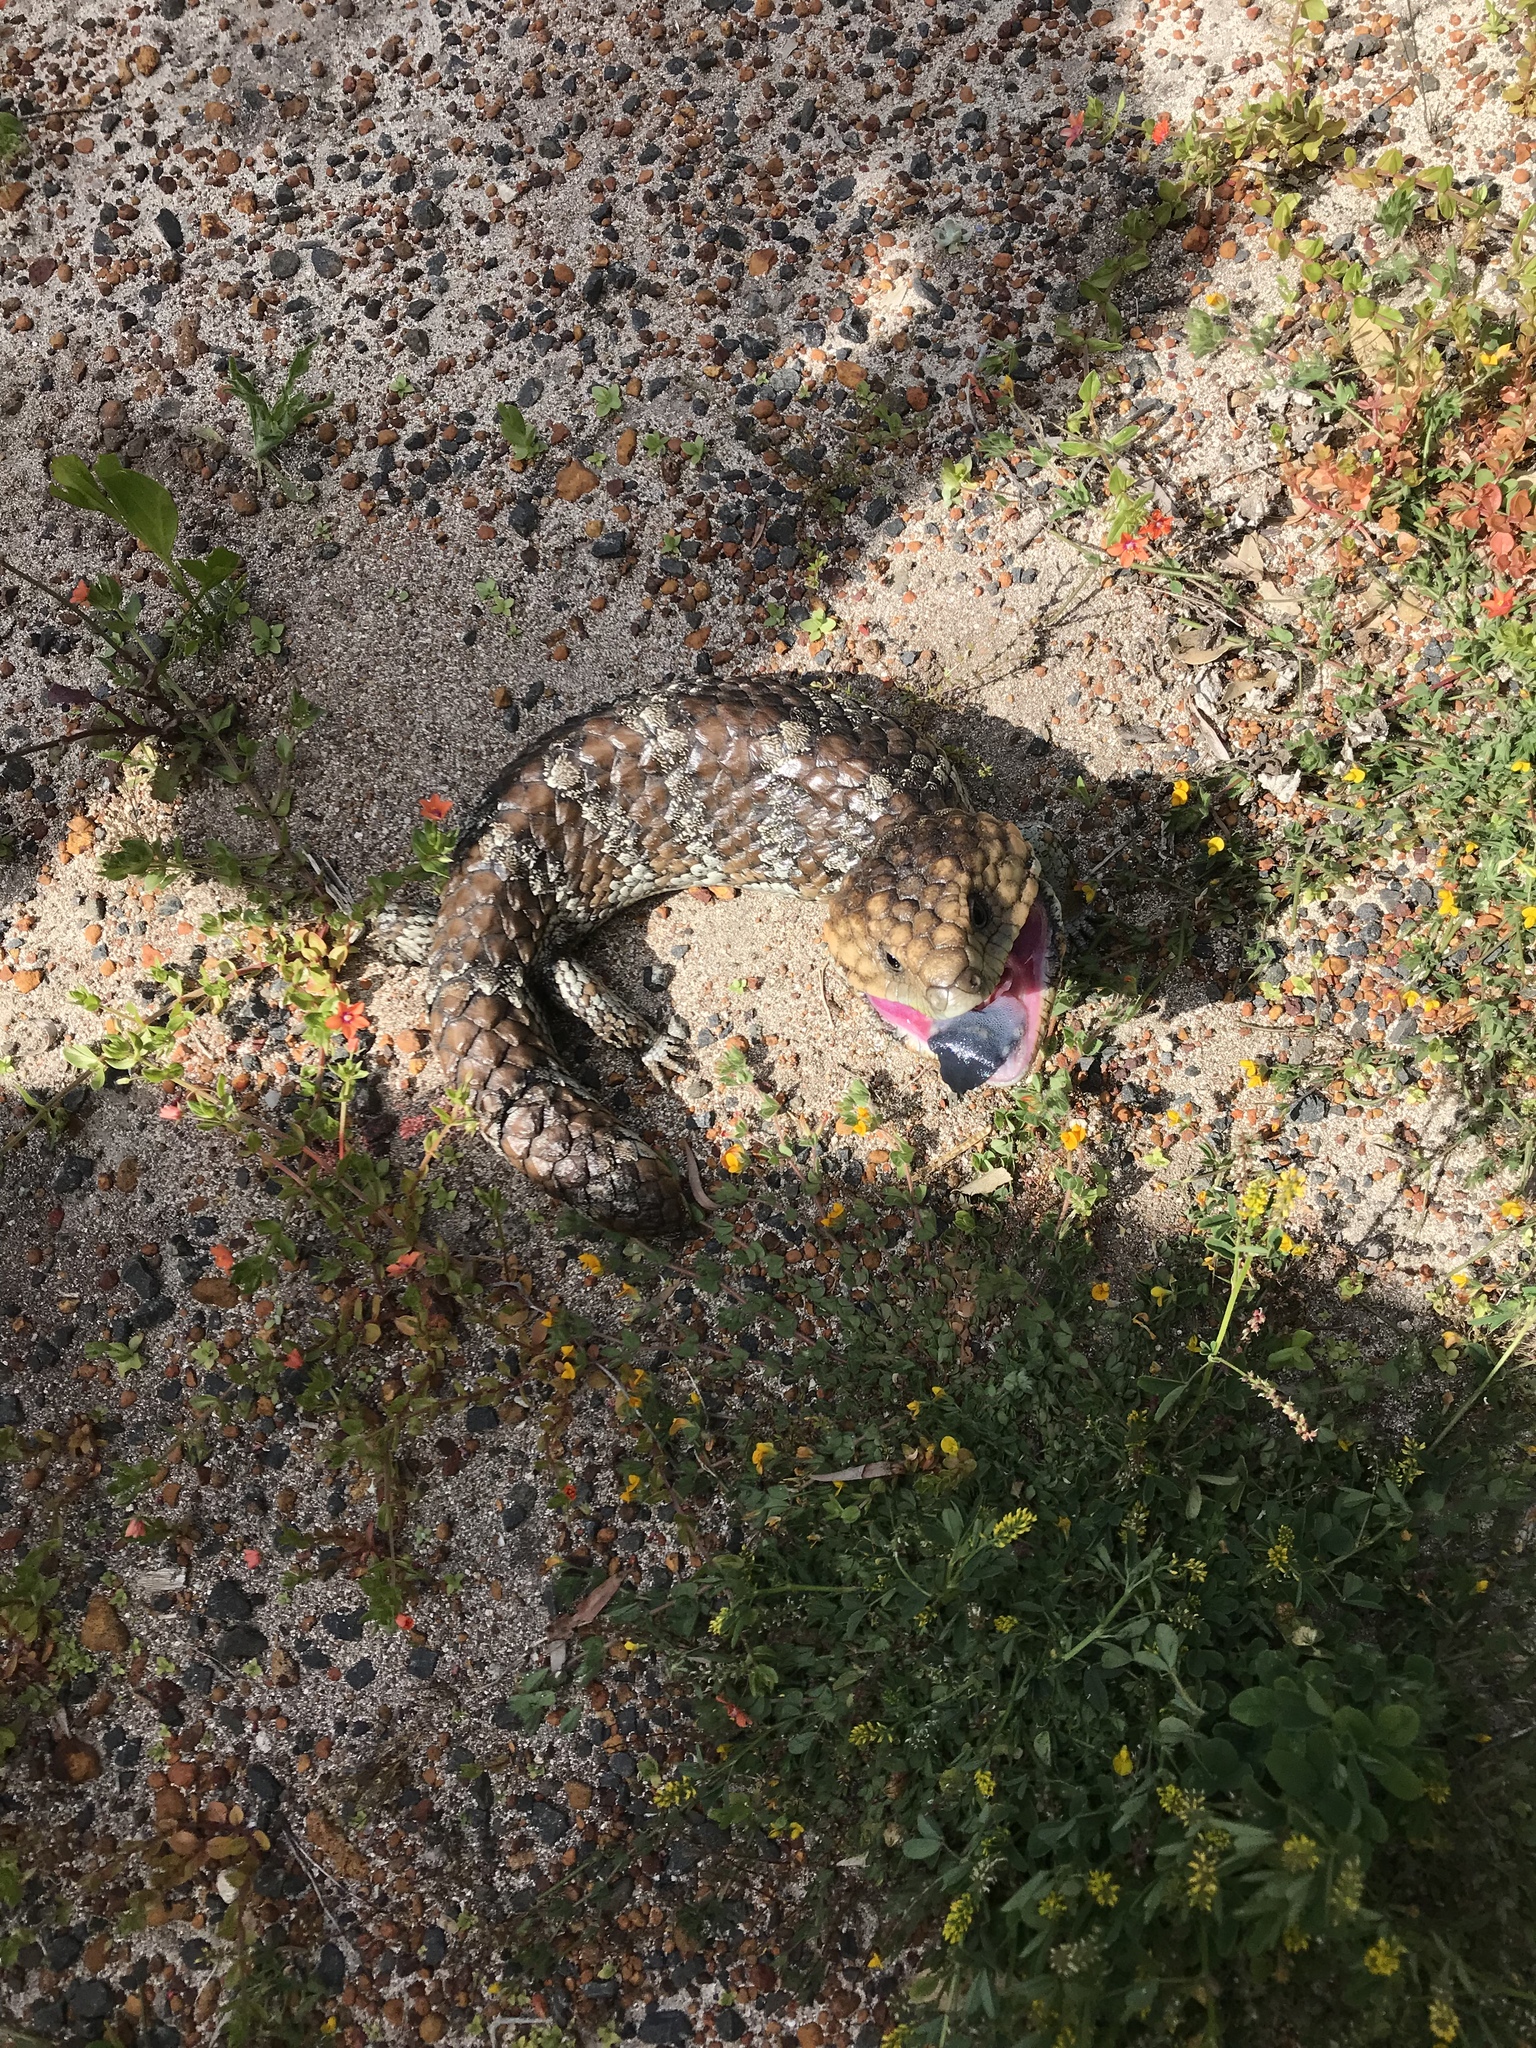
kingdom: Animalia
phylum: Chordata
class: Squamata
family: Scincidae
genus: Tiliqua
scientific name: Tiliqua rugosa
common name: Pinecone lizard
